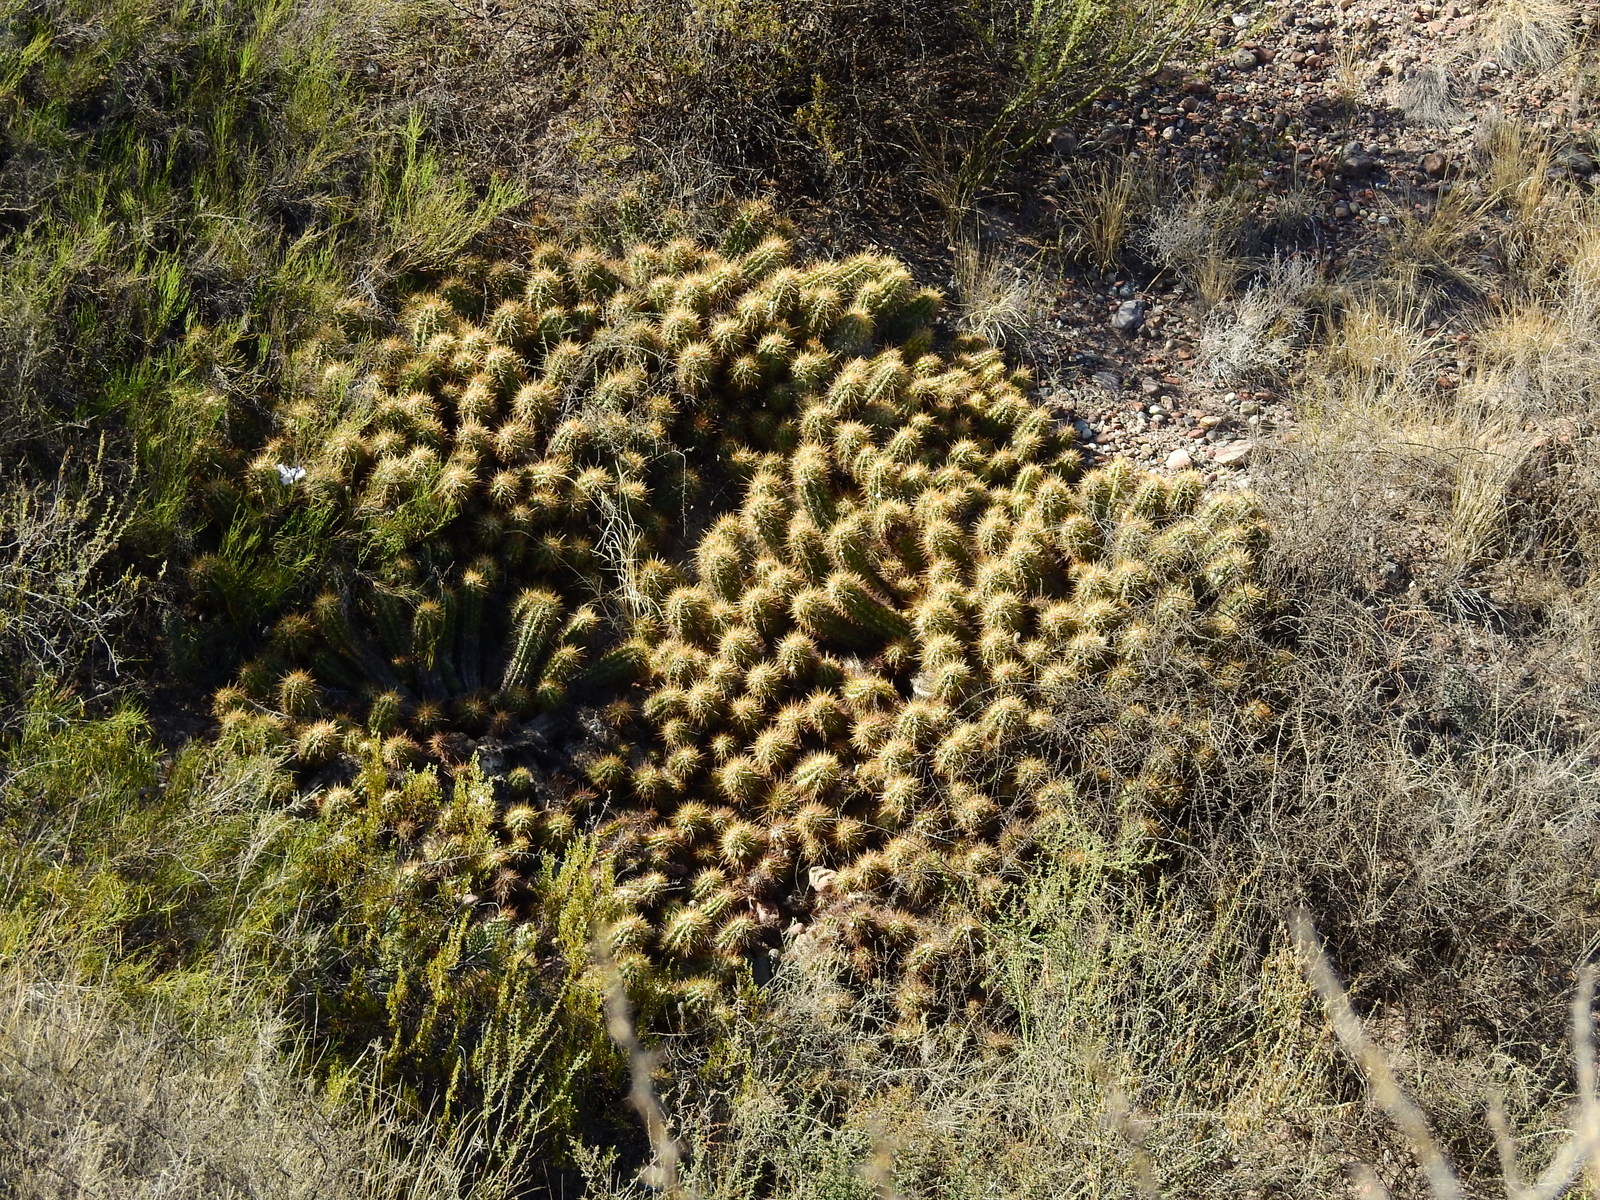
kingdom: Plantae
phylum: Tracheophyta
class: Magnoliopsida
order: Caryophyllales
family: Cactaceae
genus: Soehrensia
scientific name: Soehrensia candicans
